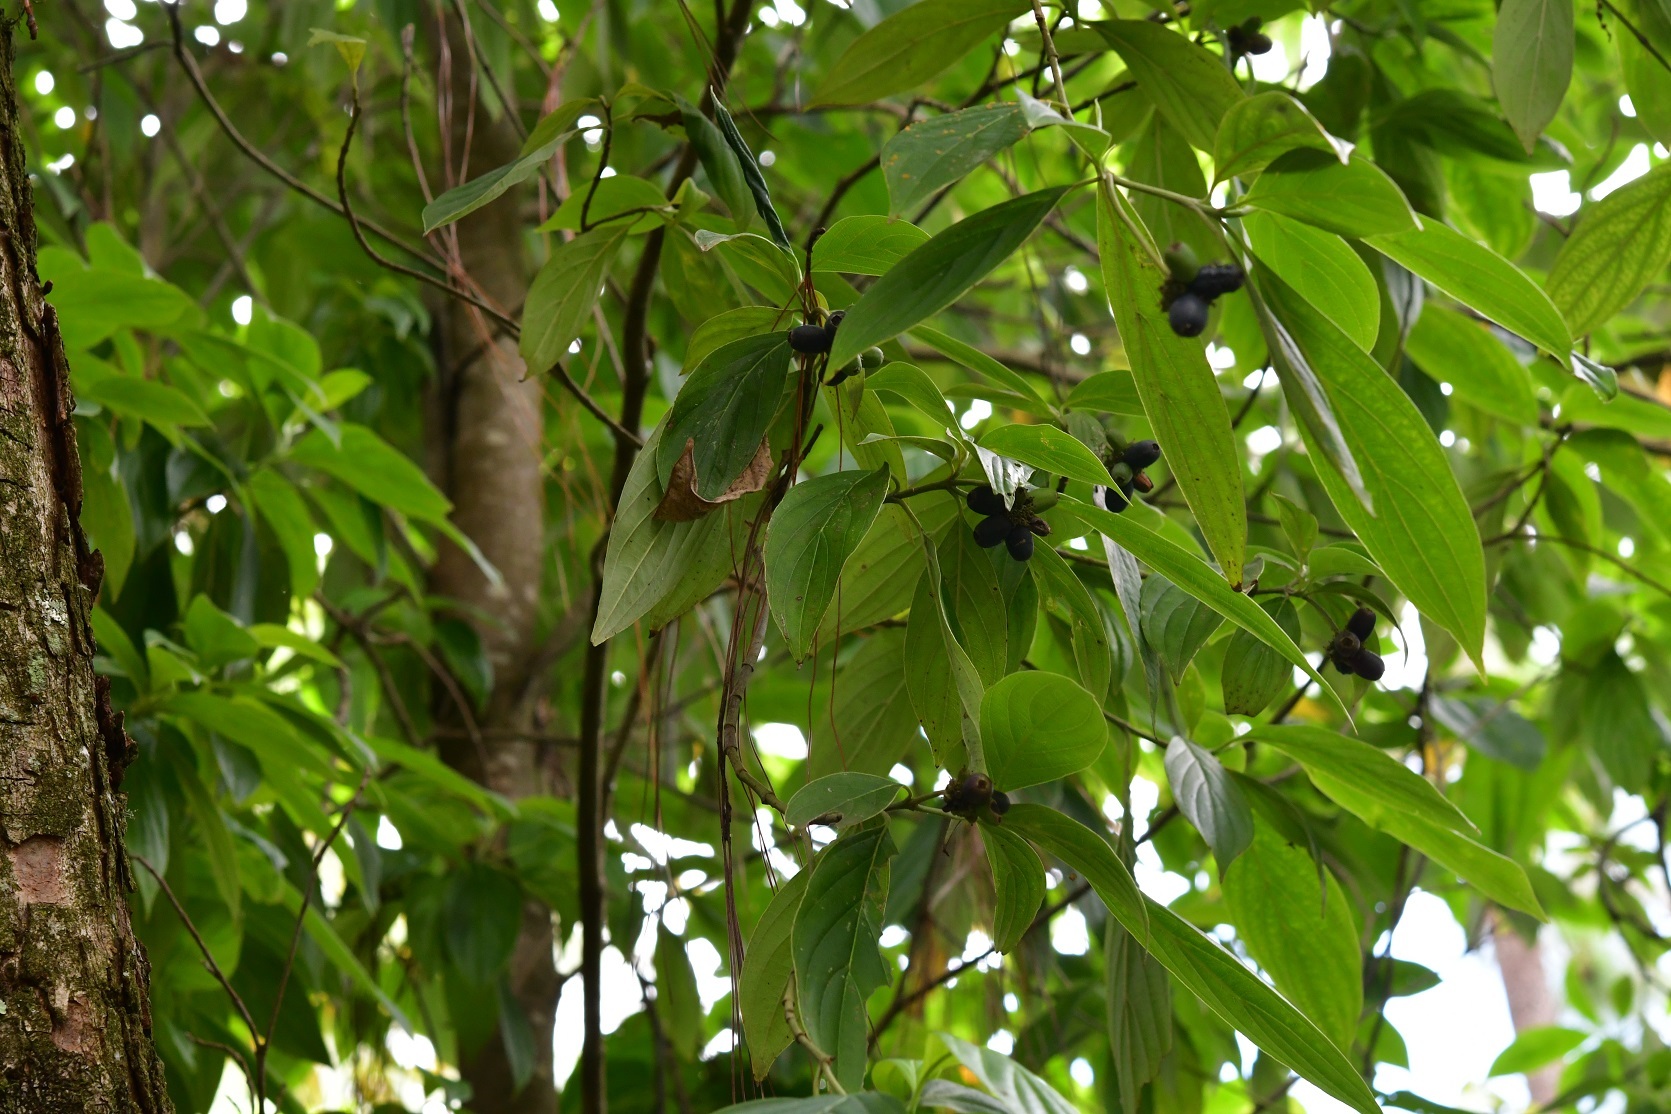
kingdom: Plantae
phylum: Tracheophyta
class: Magnoliopsida
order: Cornales
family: Cornaceae
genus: Cornus
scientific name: Cornus disciflora
